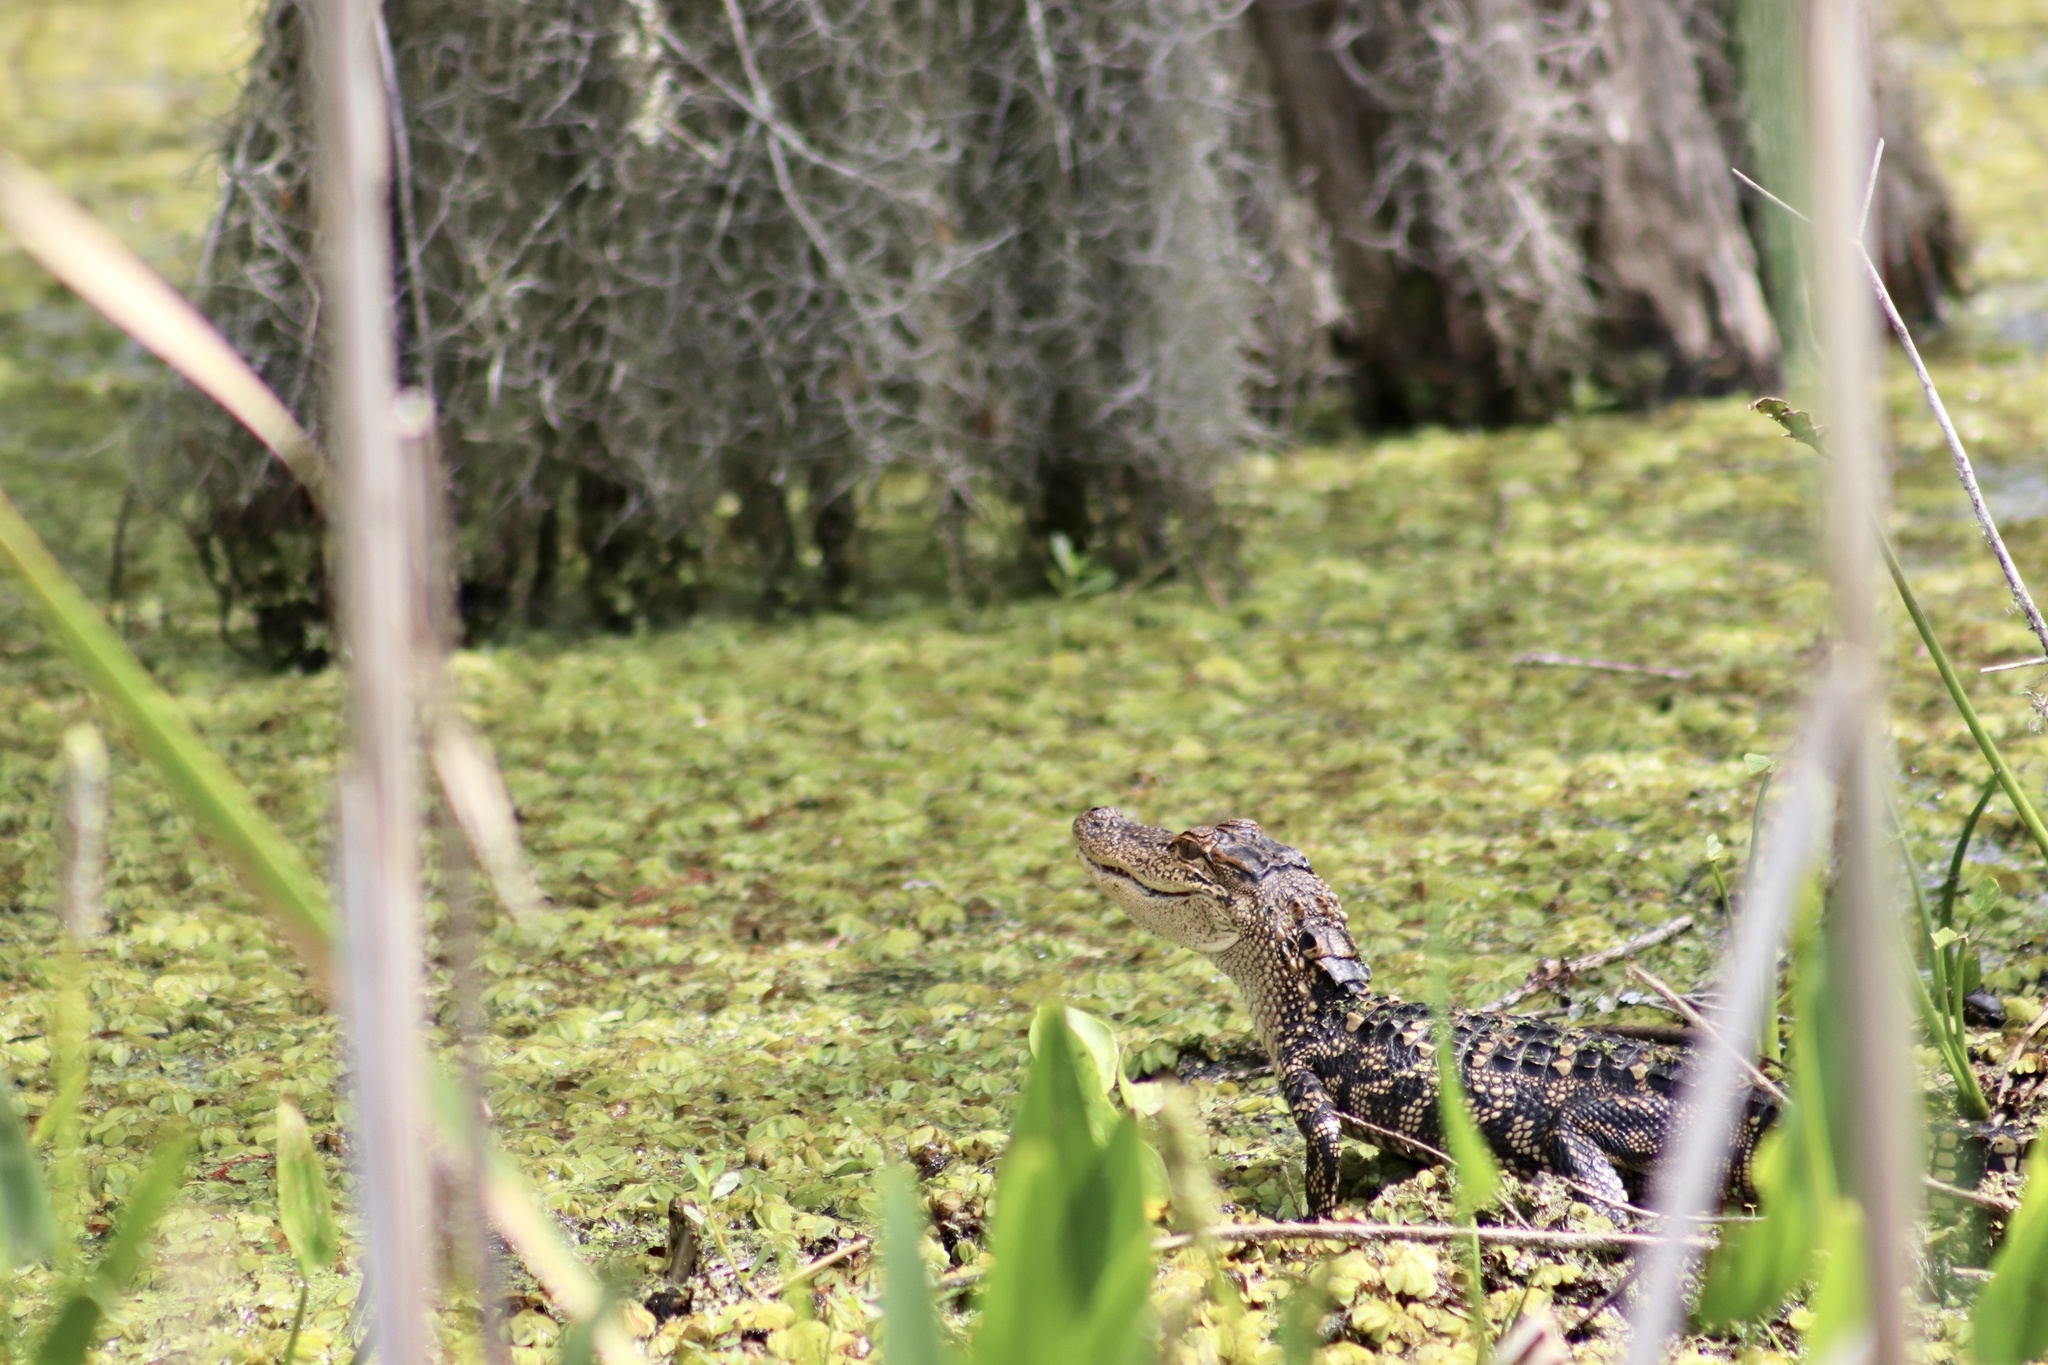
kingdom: Animalia
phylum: Chordata
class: Crocodylia
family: Alligatoridae
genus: Alligator
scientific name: Alligator mississippiensis
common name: American alligator
